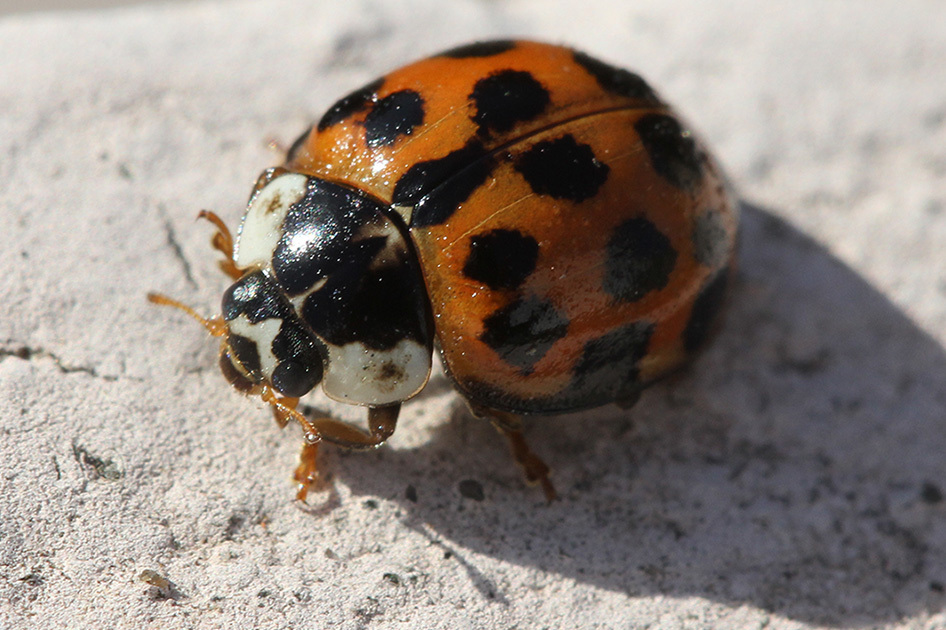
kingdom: Animalia
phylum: Arthropoda
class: Insecta
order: Coleoptera
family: Coccinellidae
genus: Harmonia
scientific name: Harmonia axyridis
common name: Harlequin ladybird
